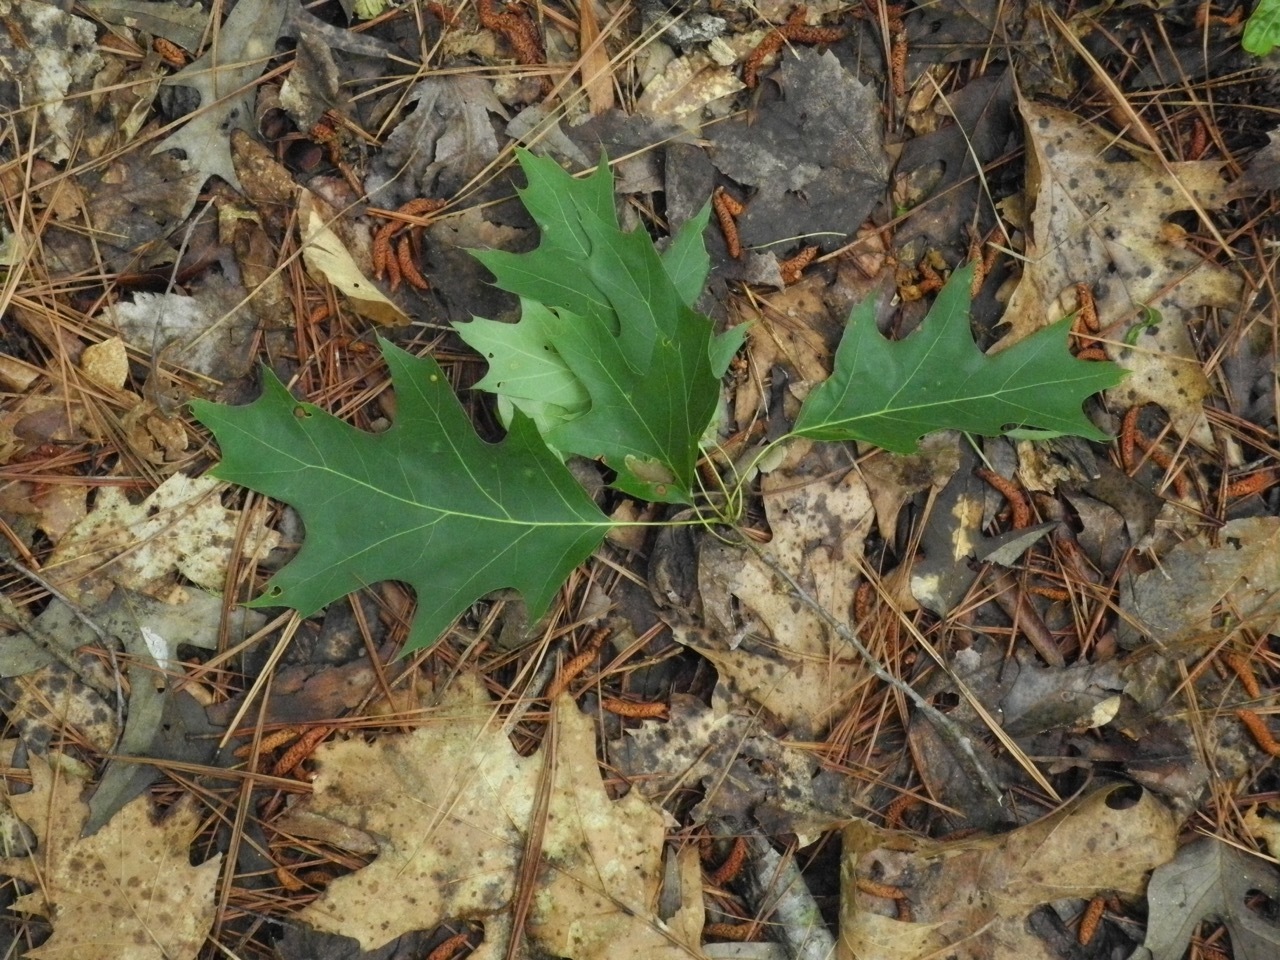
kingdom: Plantae
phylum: Tracheophyta
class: Magnoliopsida
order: Fagales
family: Fagaceae
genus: Quercus
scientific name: Quercus rubra
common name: Red oak
